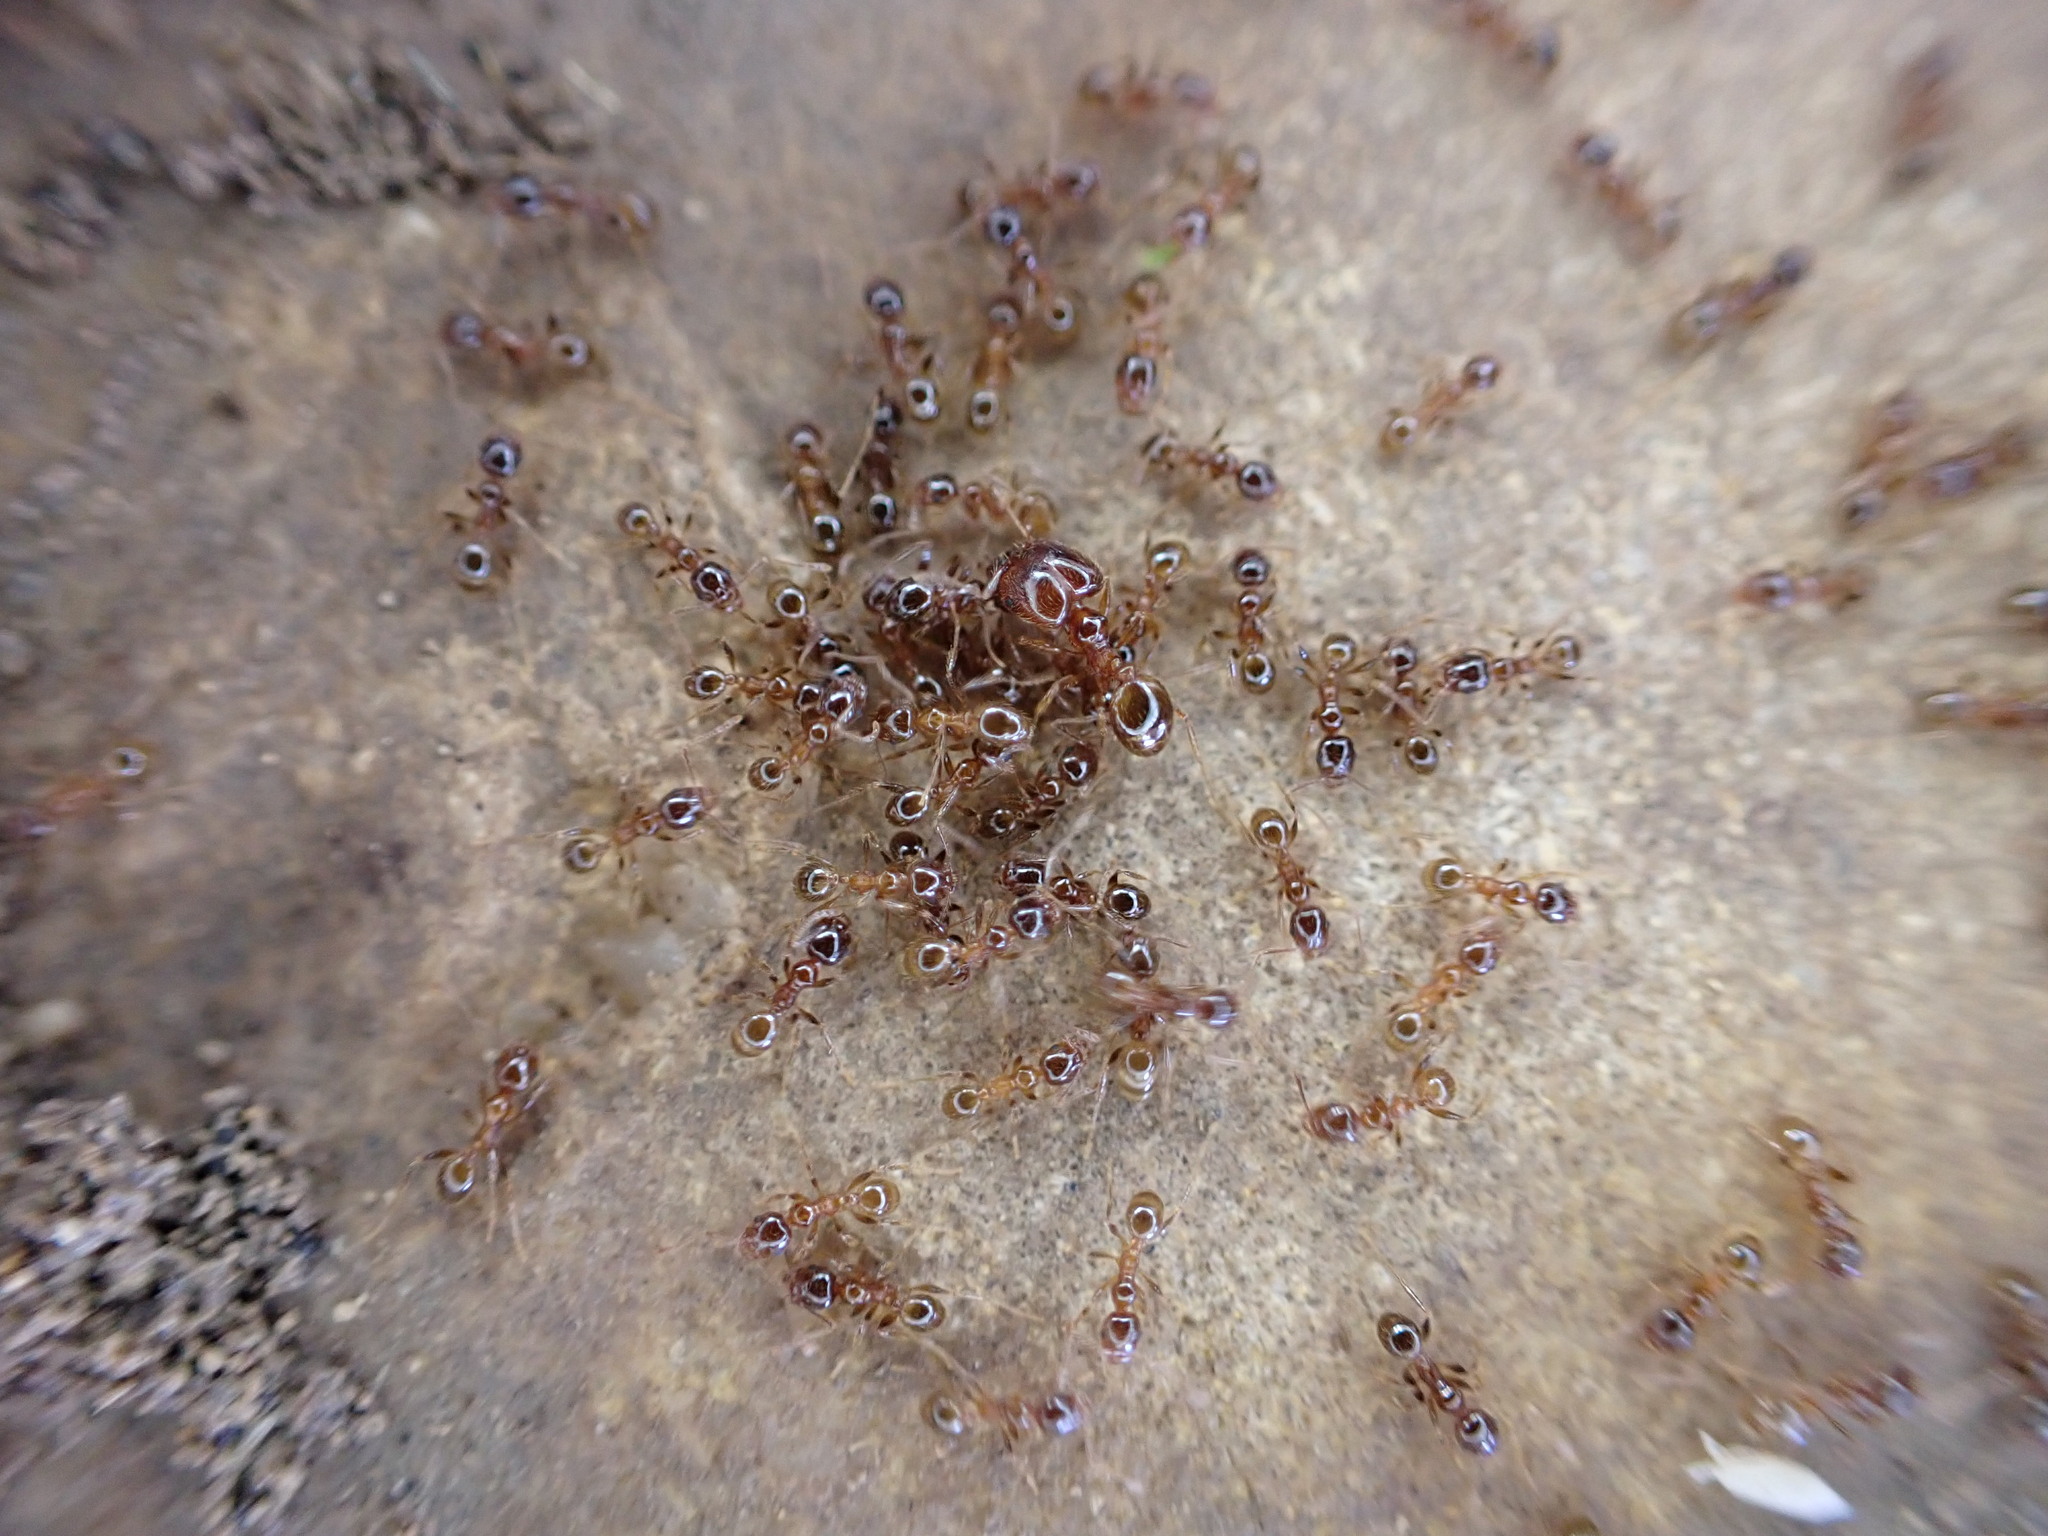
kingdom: Animalia
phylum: Arthropoda
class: Insecta
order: Hymenoptera
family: Formicidae
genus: Pheidole
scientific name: Pheidole pallidula
